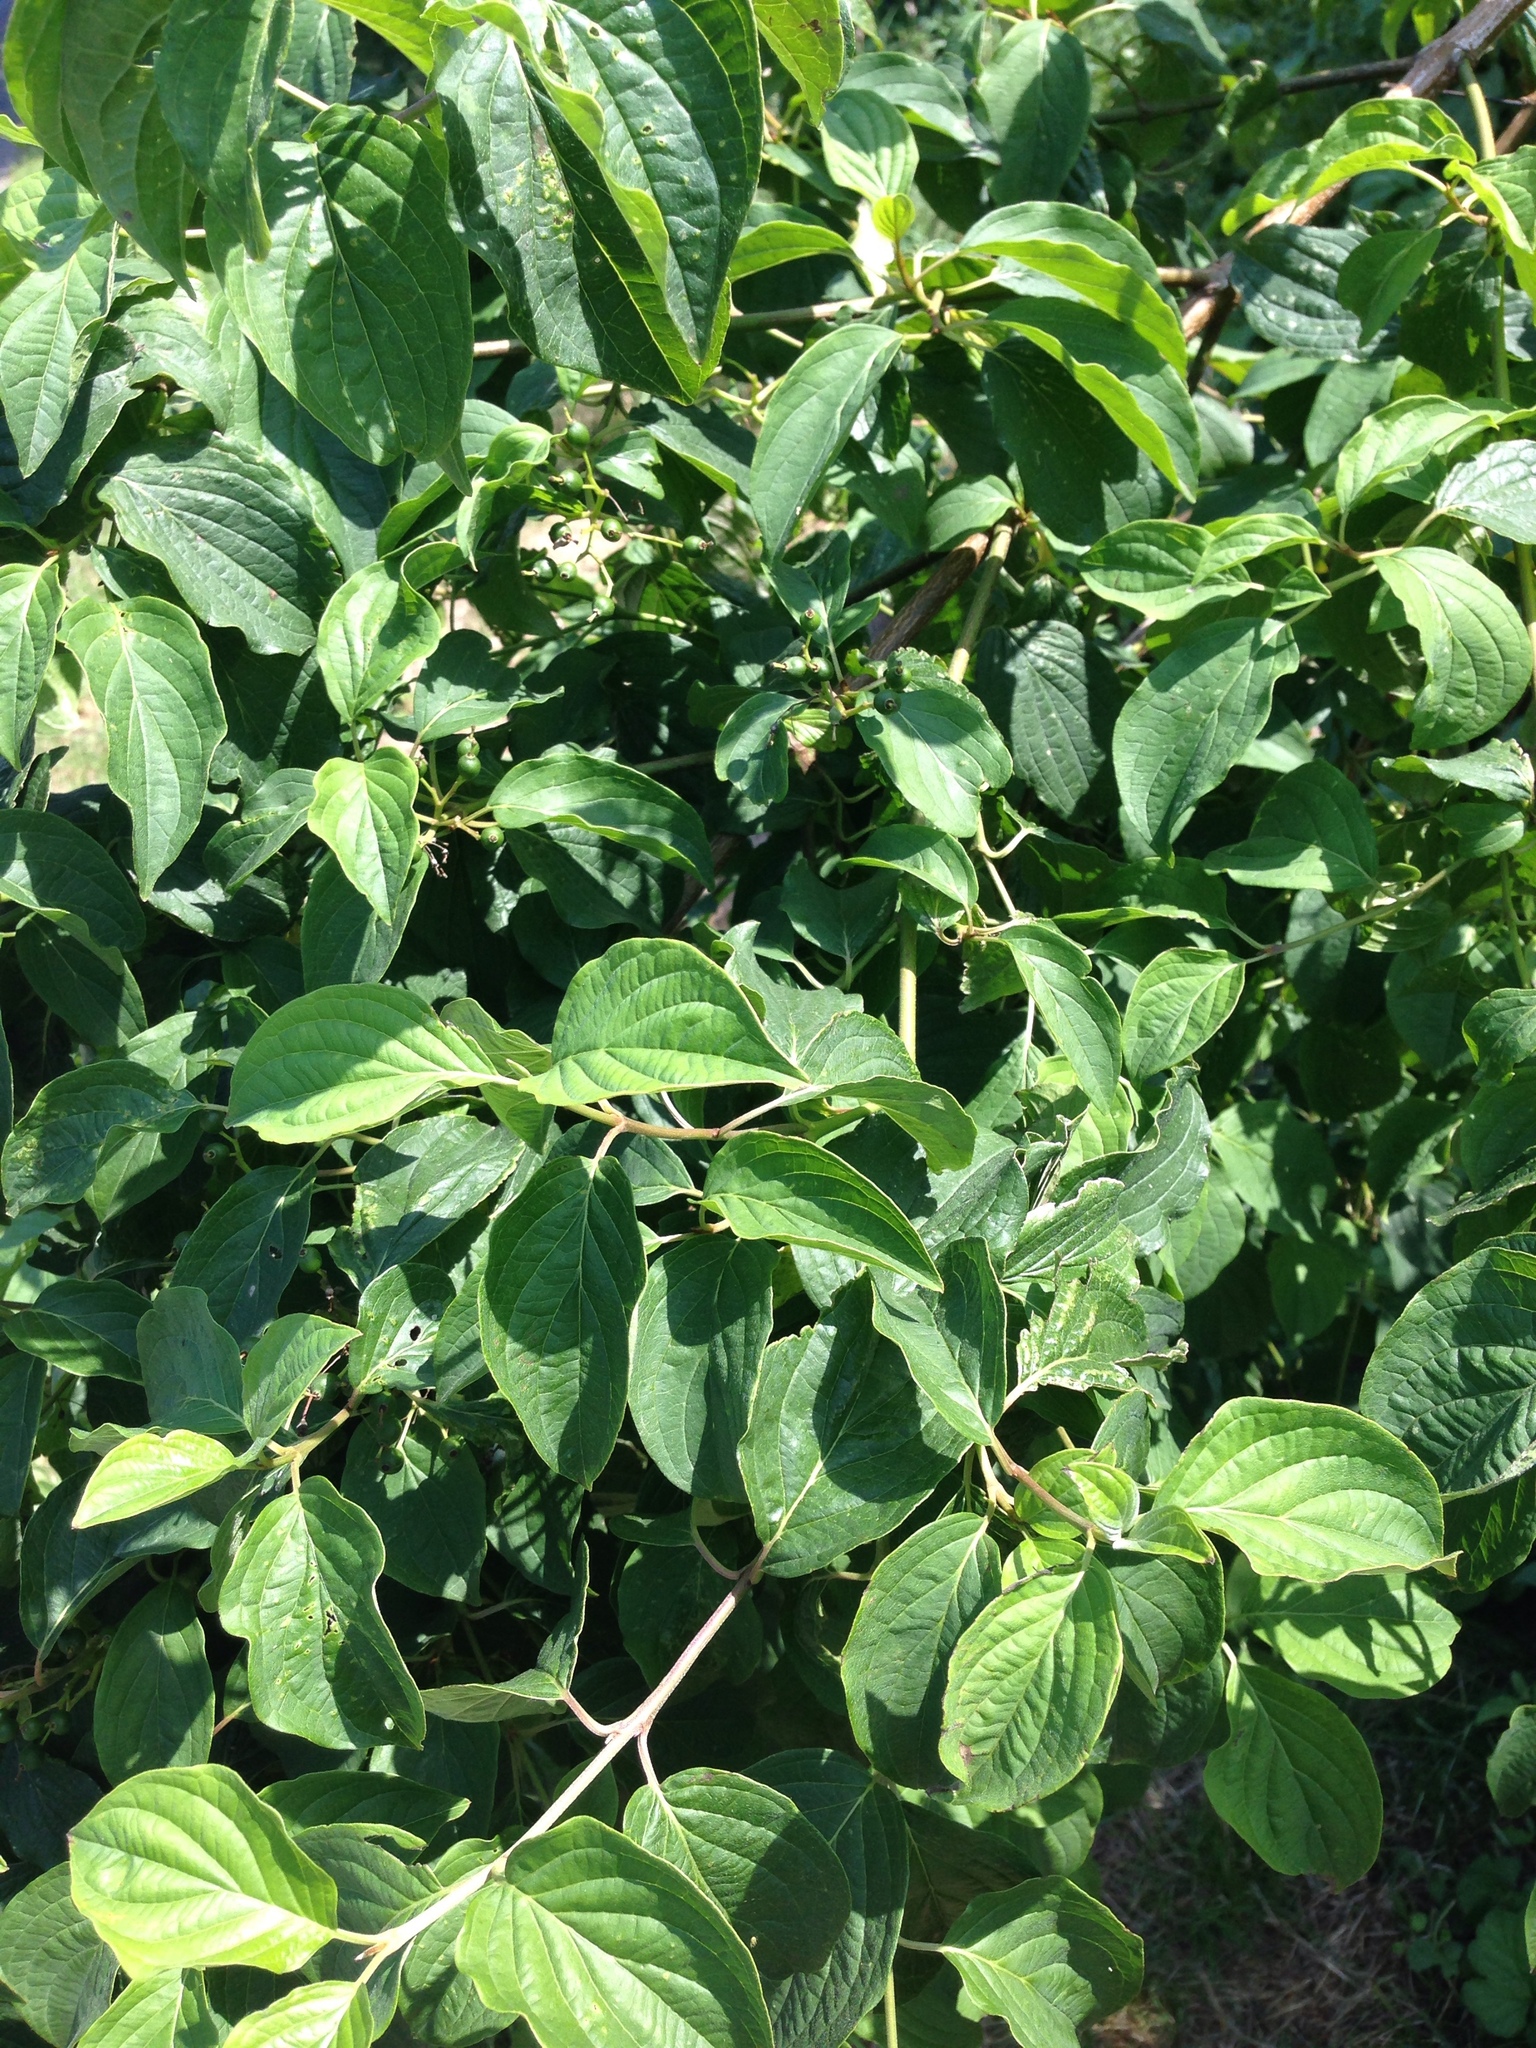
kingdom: Plantae
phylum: Tracheophyta
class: Magnoliopsida
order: Cornales
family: Cornaceae
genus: Cornus
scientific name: Cornus sanguinea
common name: Dogwood
